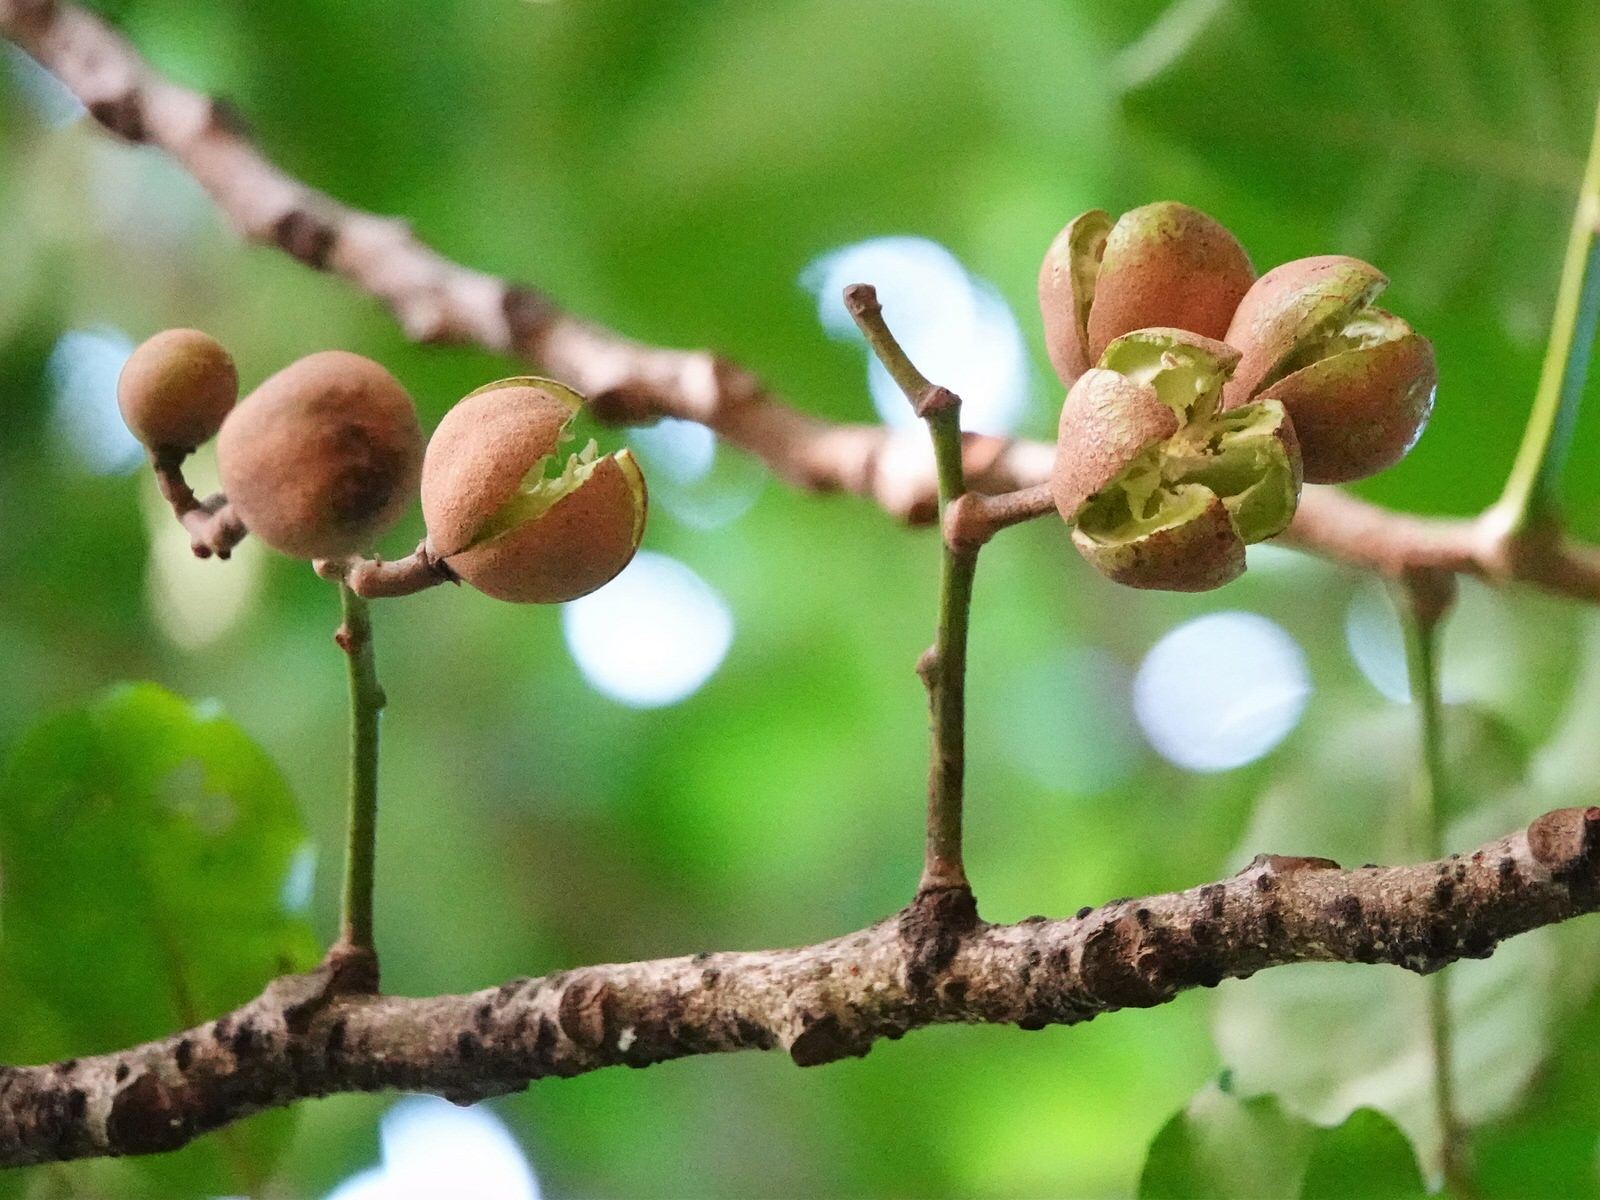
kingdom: Plantae
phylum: Tracheophyta
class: Magnoliopsida
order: Sapindales
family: Meliaceae
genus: Didymocheton
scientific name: Didymocheton spectabilis
